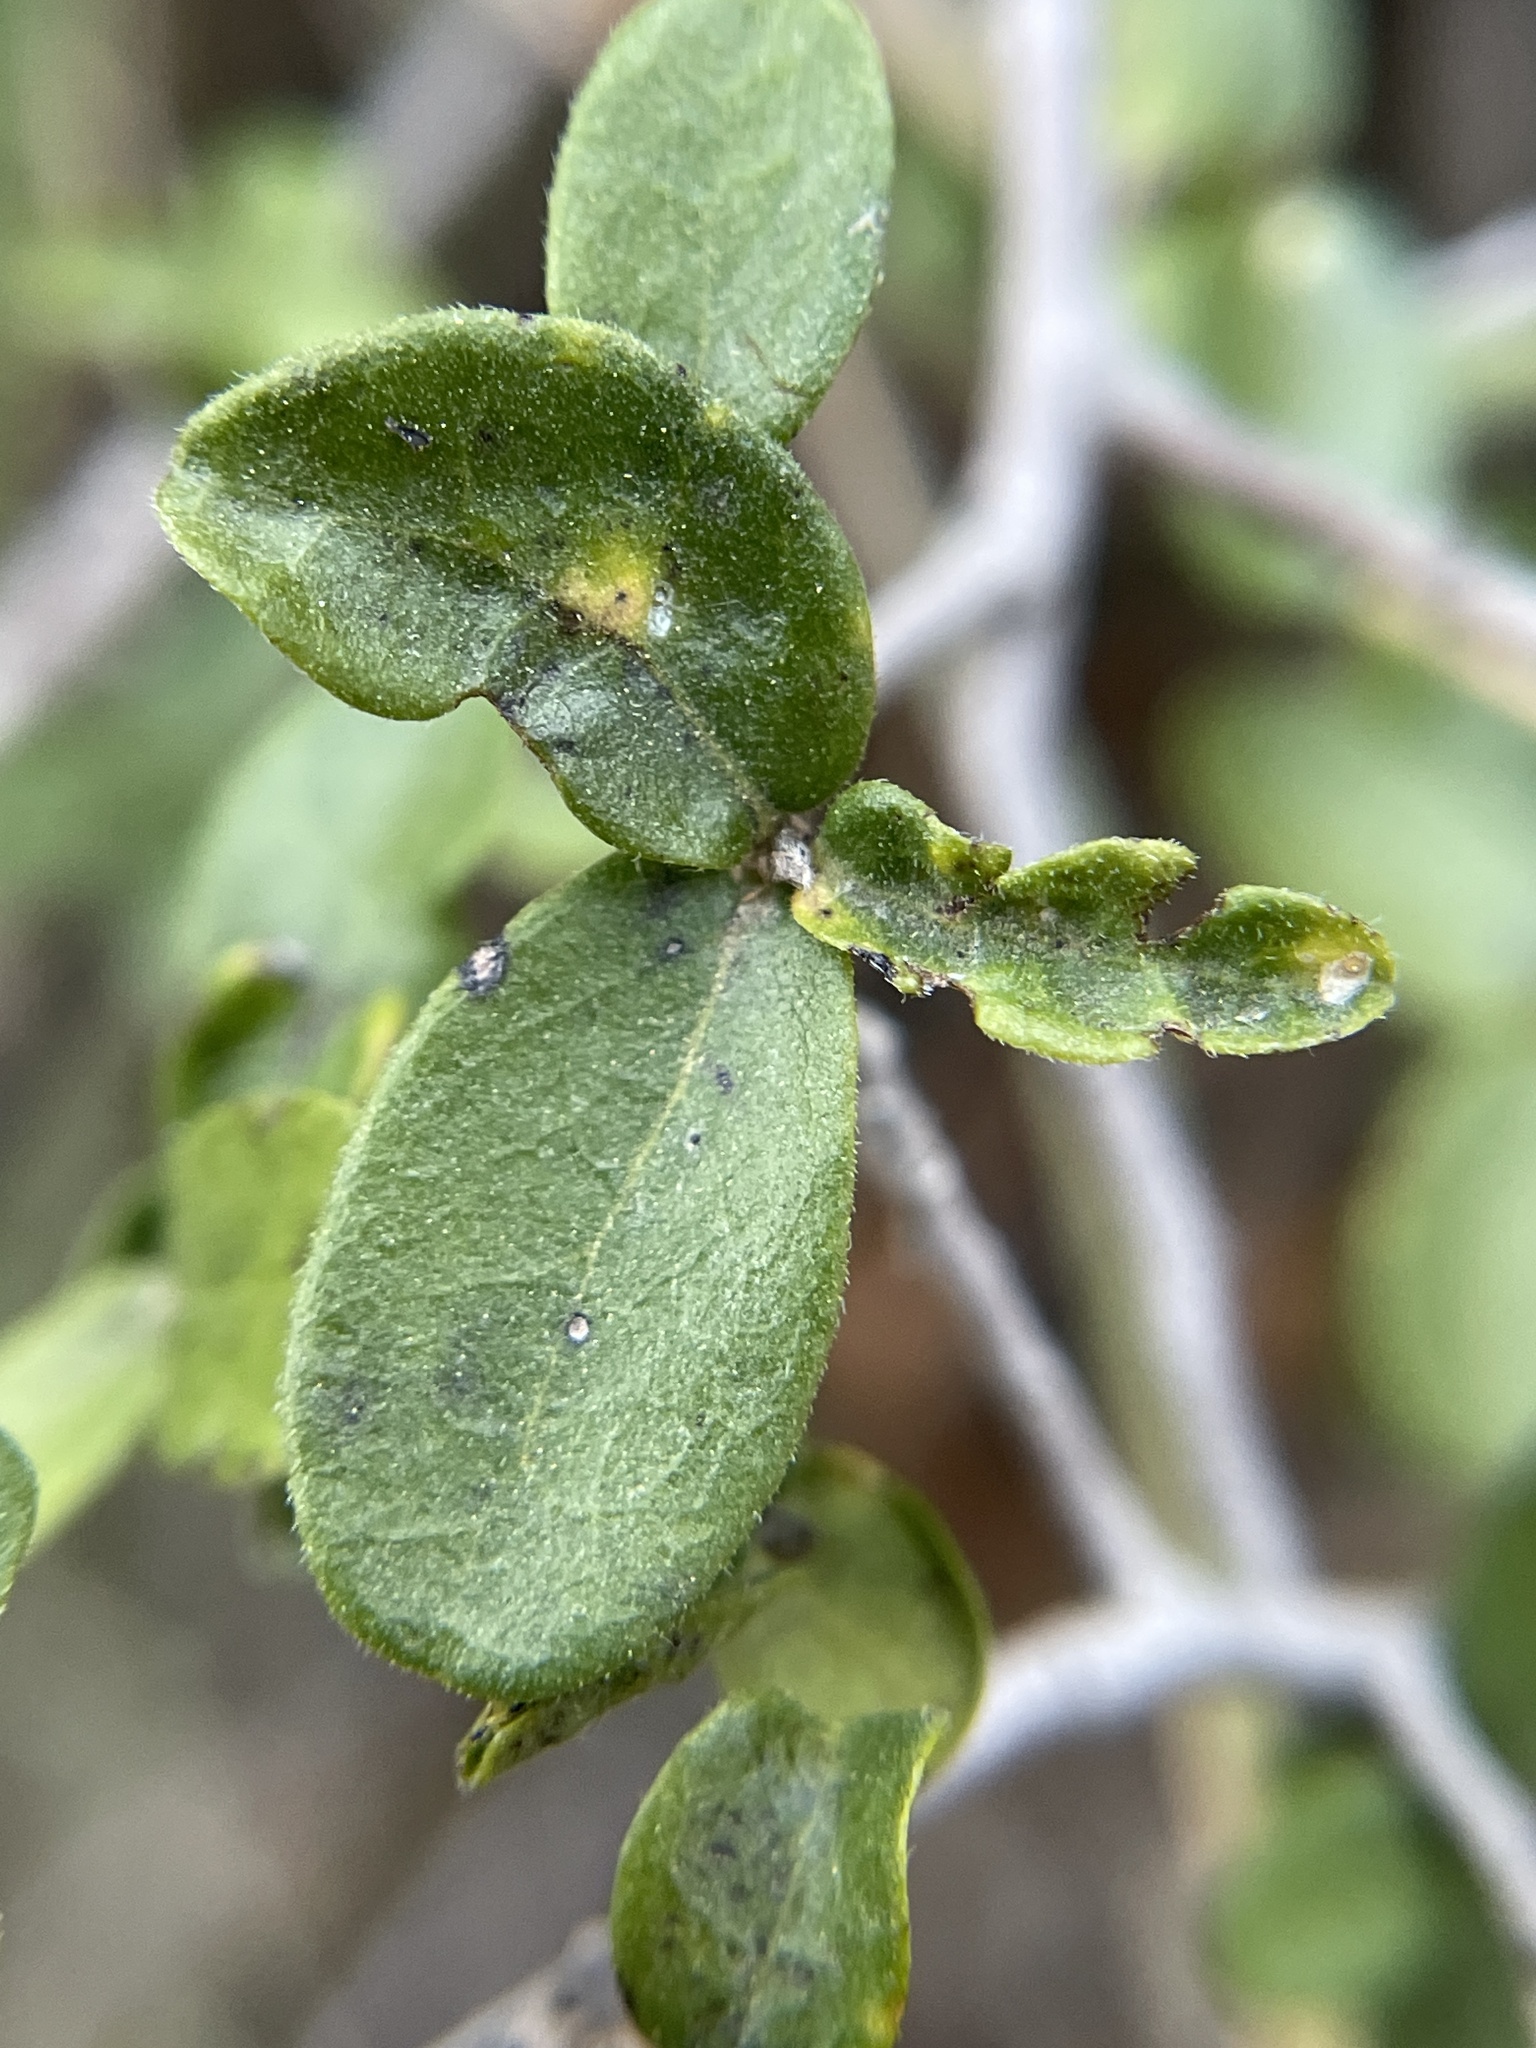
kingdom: Plantae
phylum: Tracheophyta
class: Magnoliopsida
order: Ericales
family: Ebenaceae
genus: Diospyros
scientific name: Diospyros texana
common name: Texas persimmon
